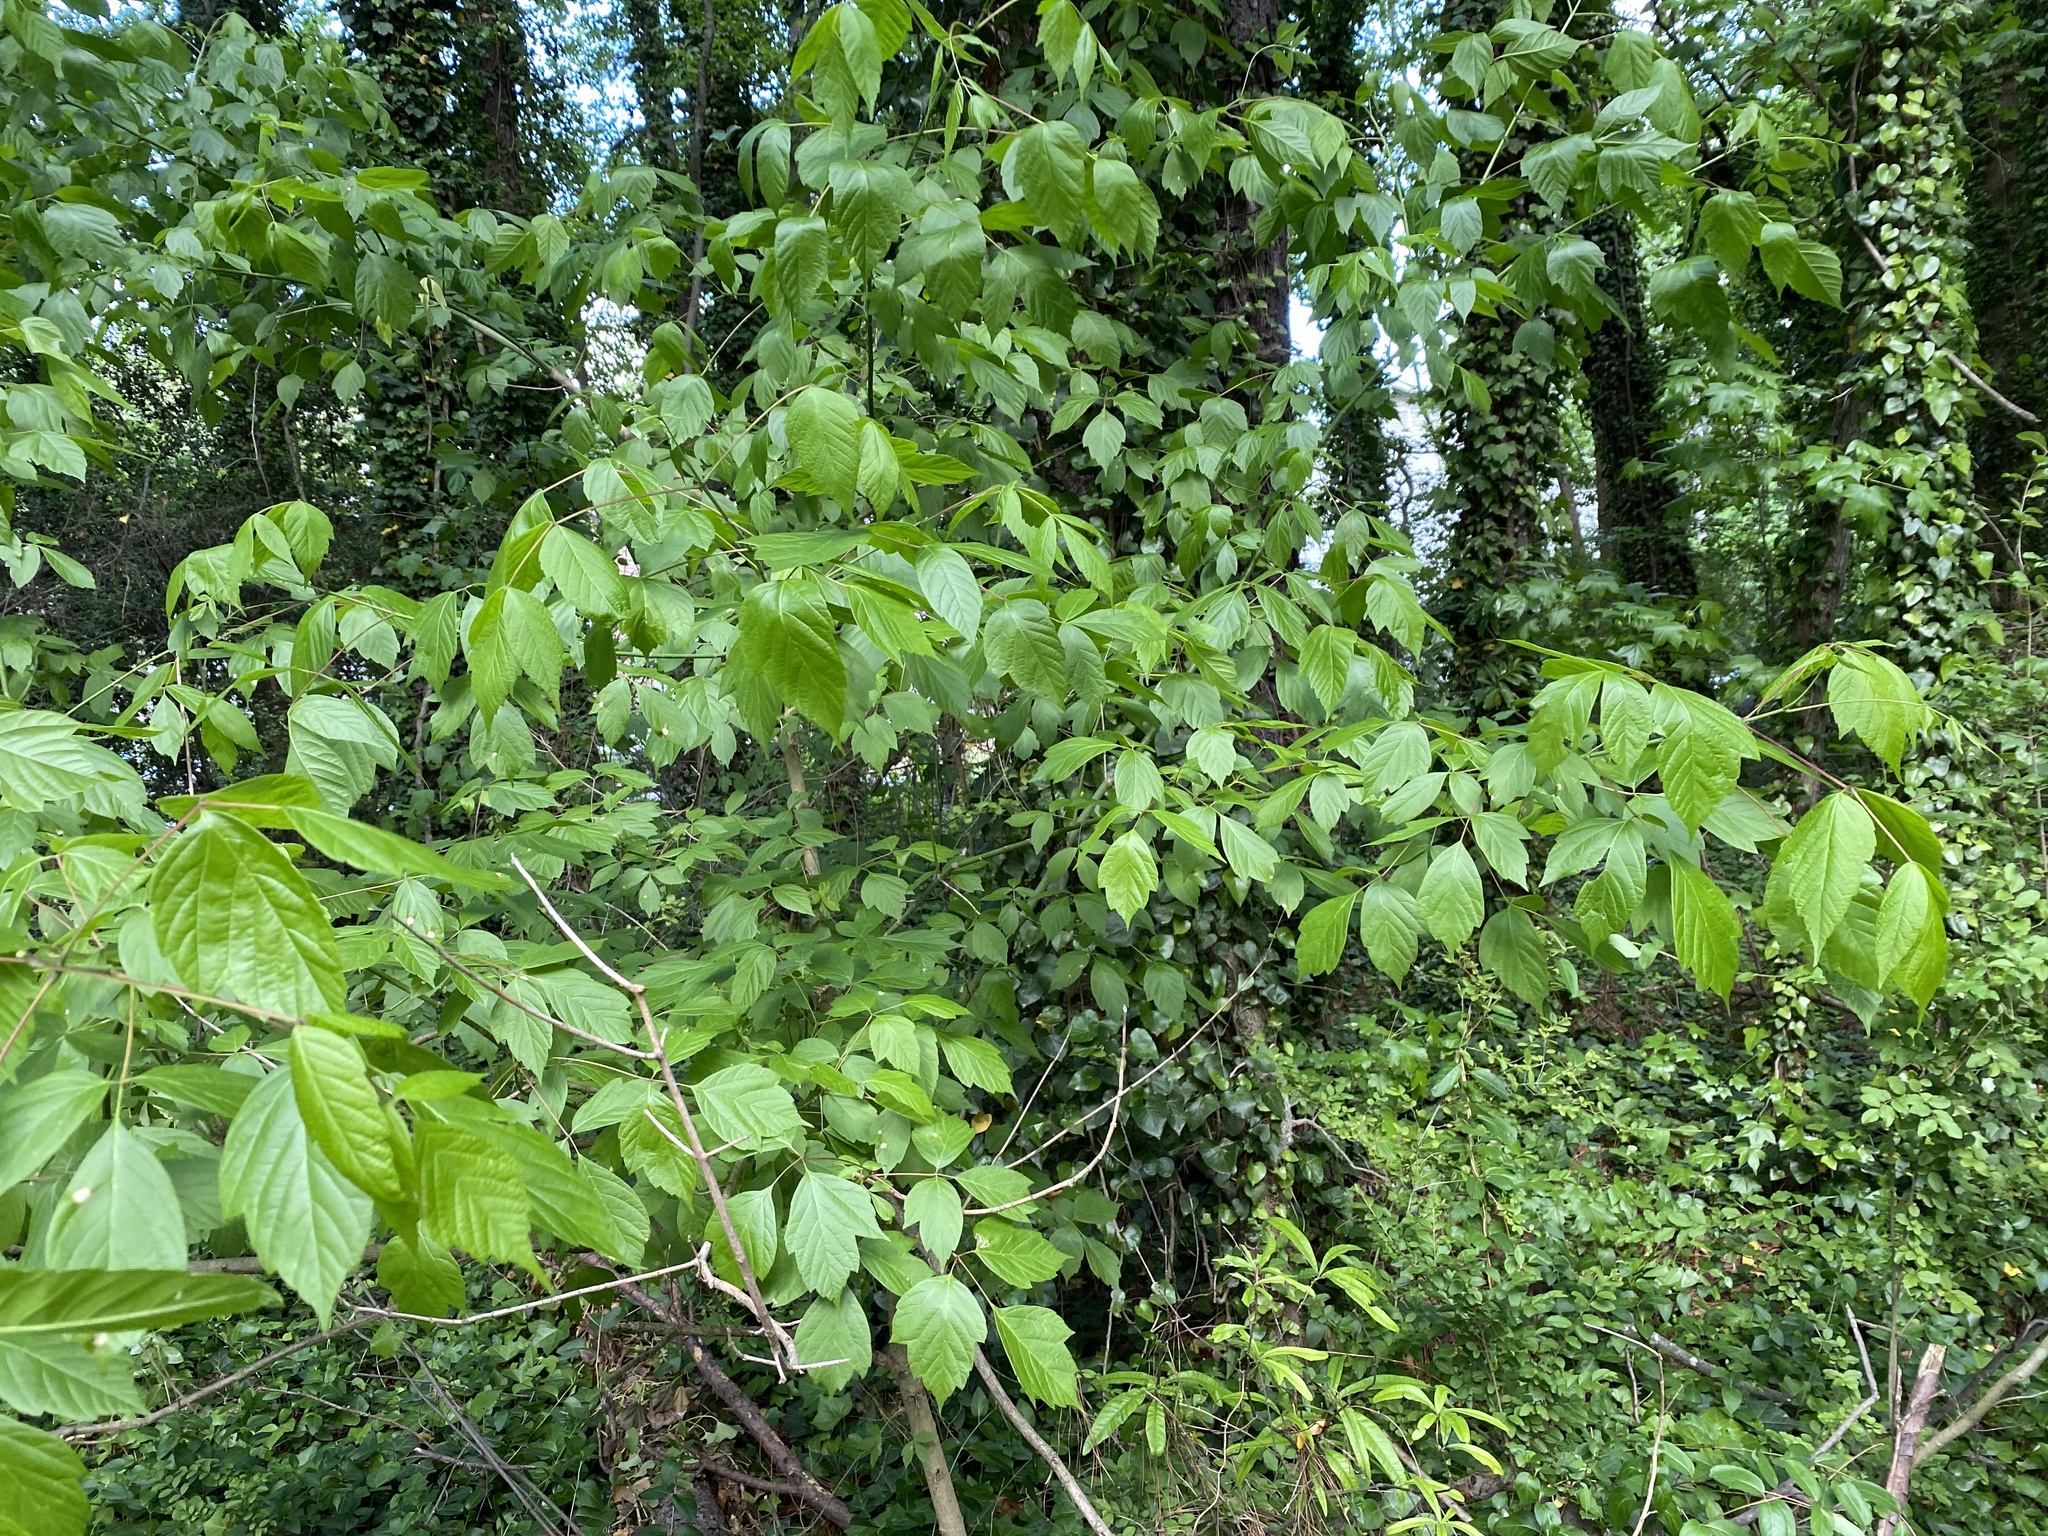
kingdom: Plantae
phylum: Tracheophyta
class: Magnoliopsida
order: Sapindales
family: Sapindaceae
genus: Acer
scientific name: Acer negundo
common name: Ashleaf maple
